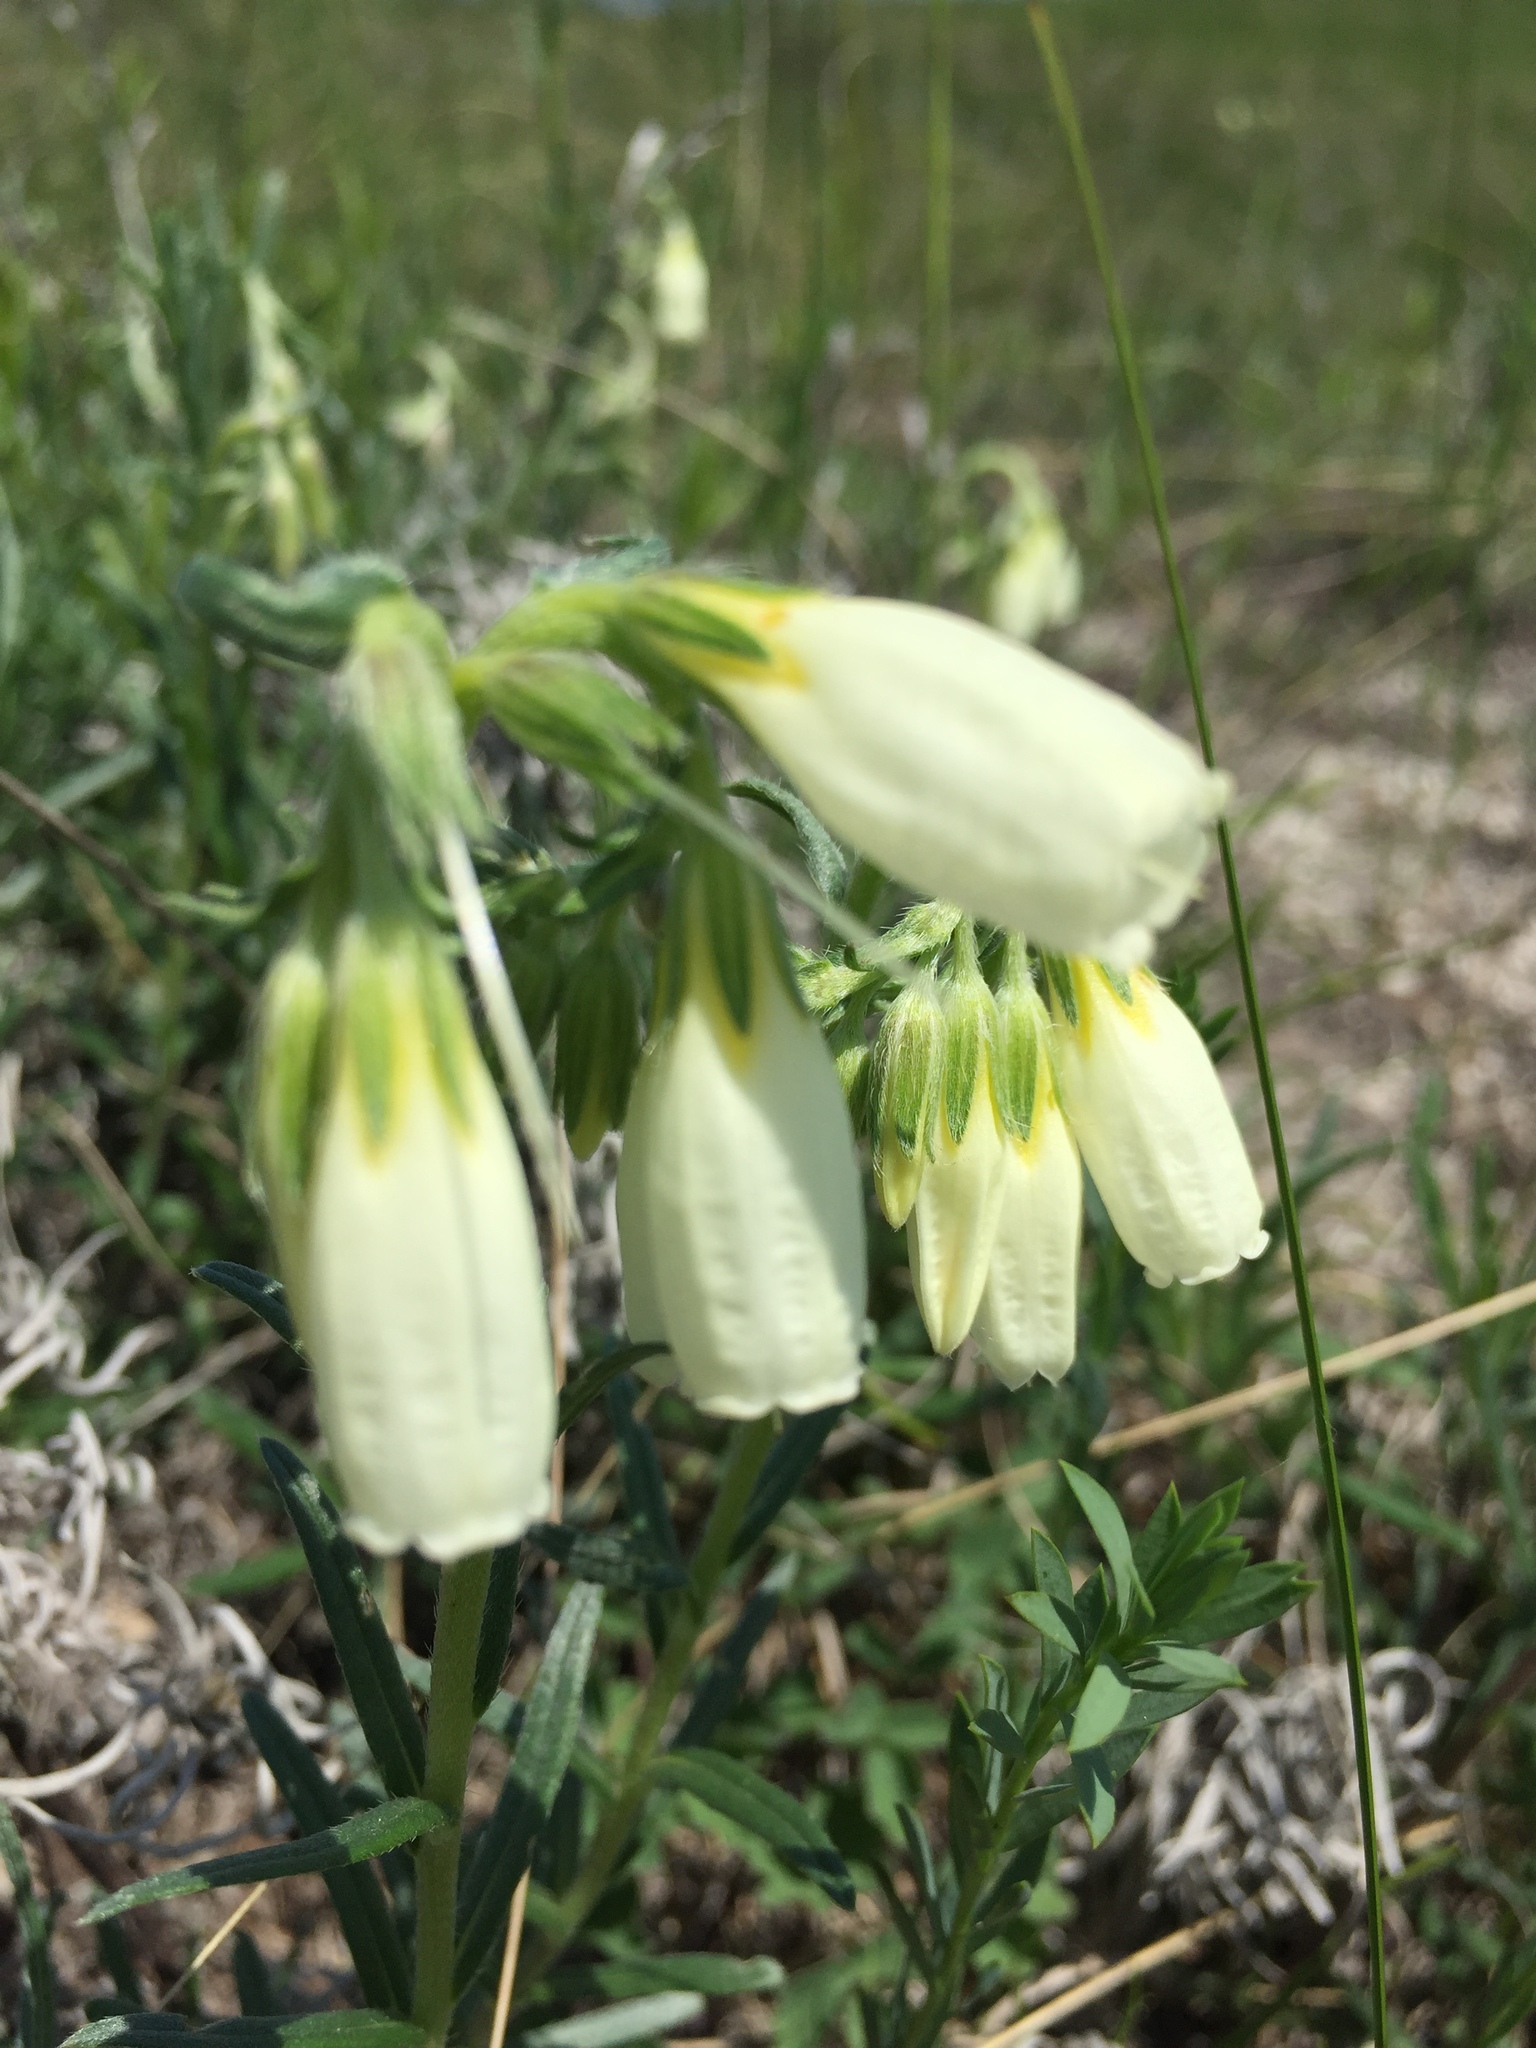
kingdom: Plantae
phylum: Tracheophyta
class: Magnoliopsida
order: Boraginales
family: Boraginaceae
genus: Onosma
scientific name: Onosma simplicissima
